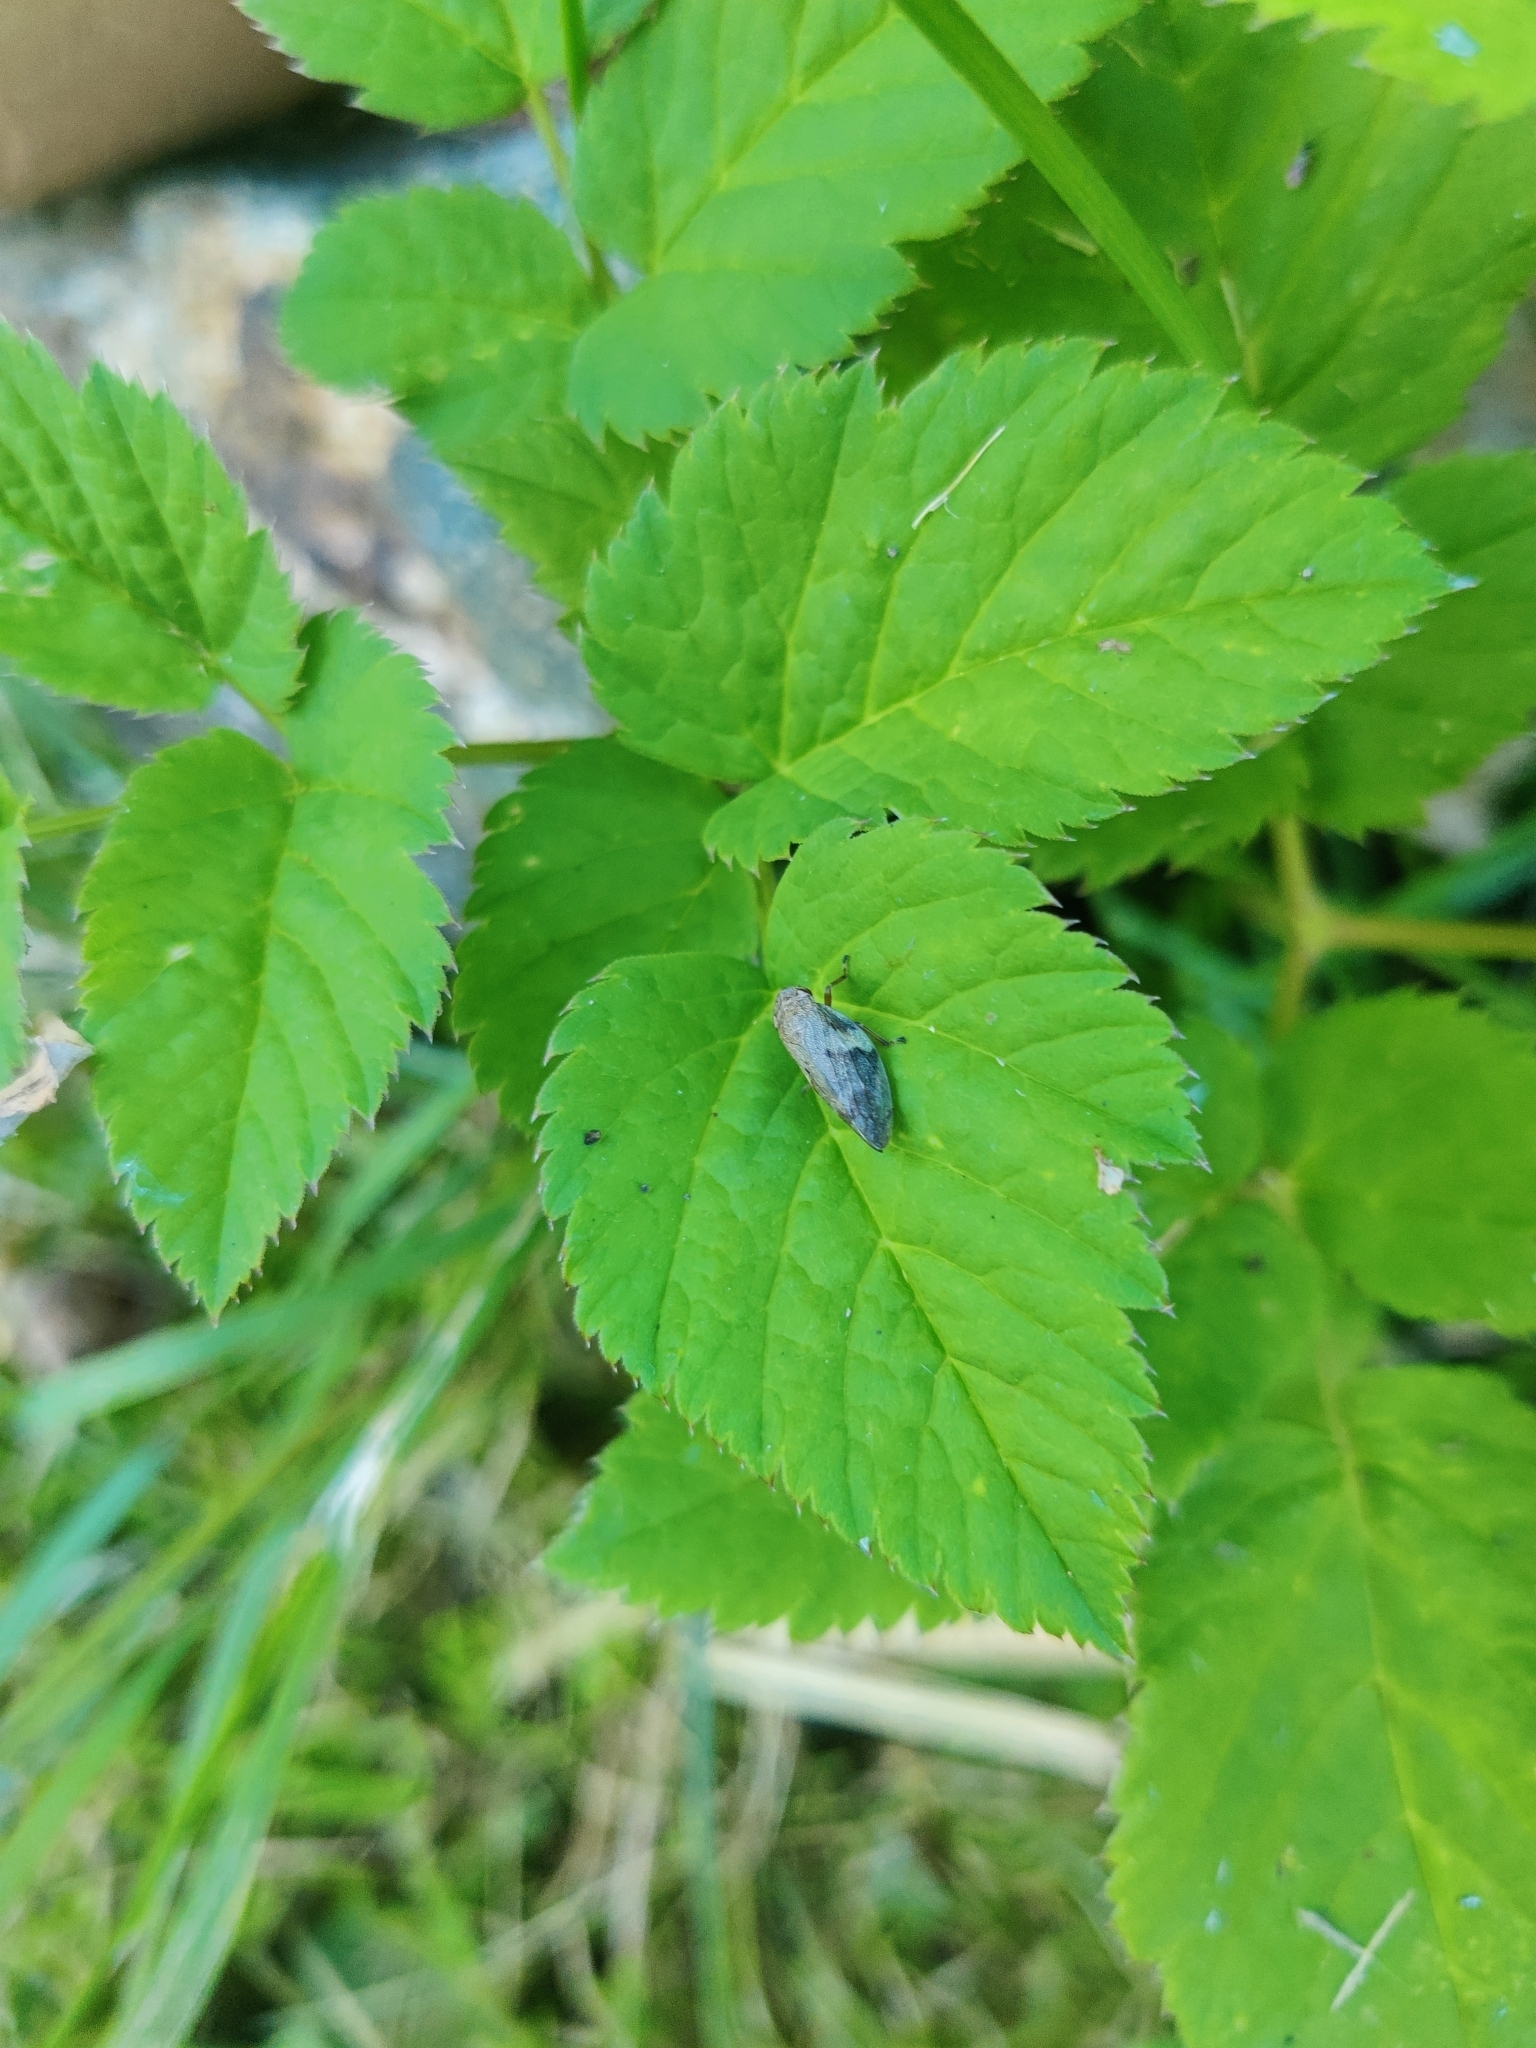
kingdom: Animalia
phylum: Arthropoda
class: Insecta
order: Hemiptera
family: Aphrophoridae
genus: Aphrophora
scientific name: Aphrophora alni
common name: European alder spittlebug
